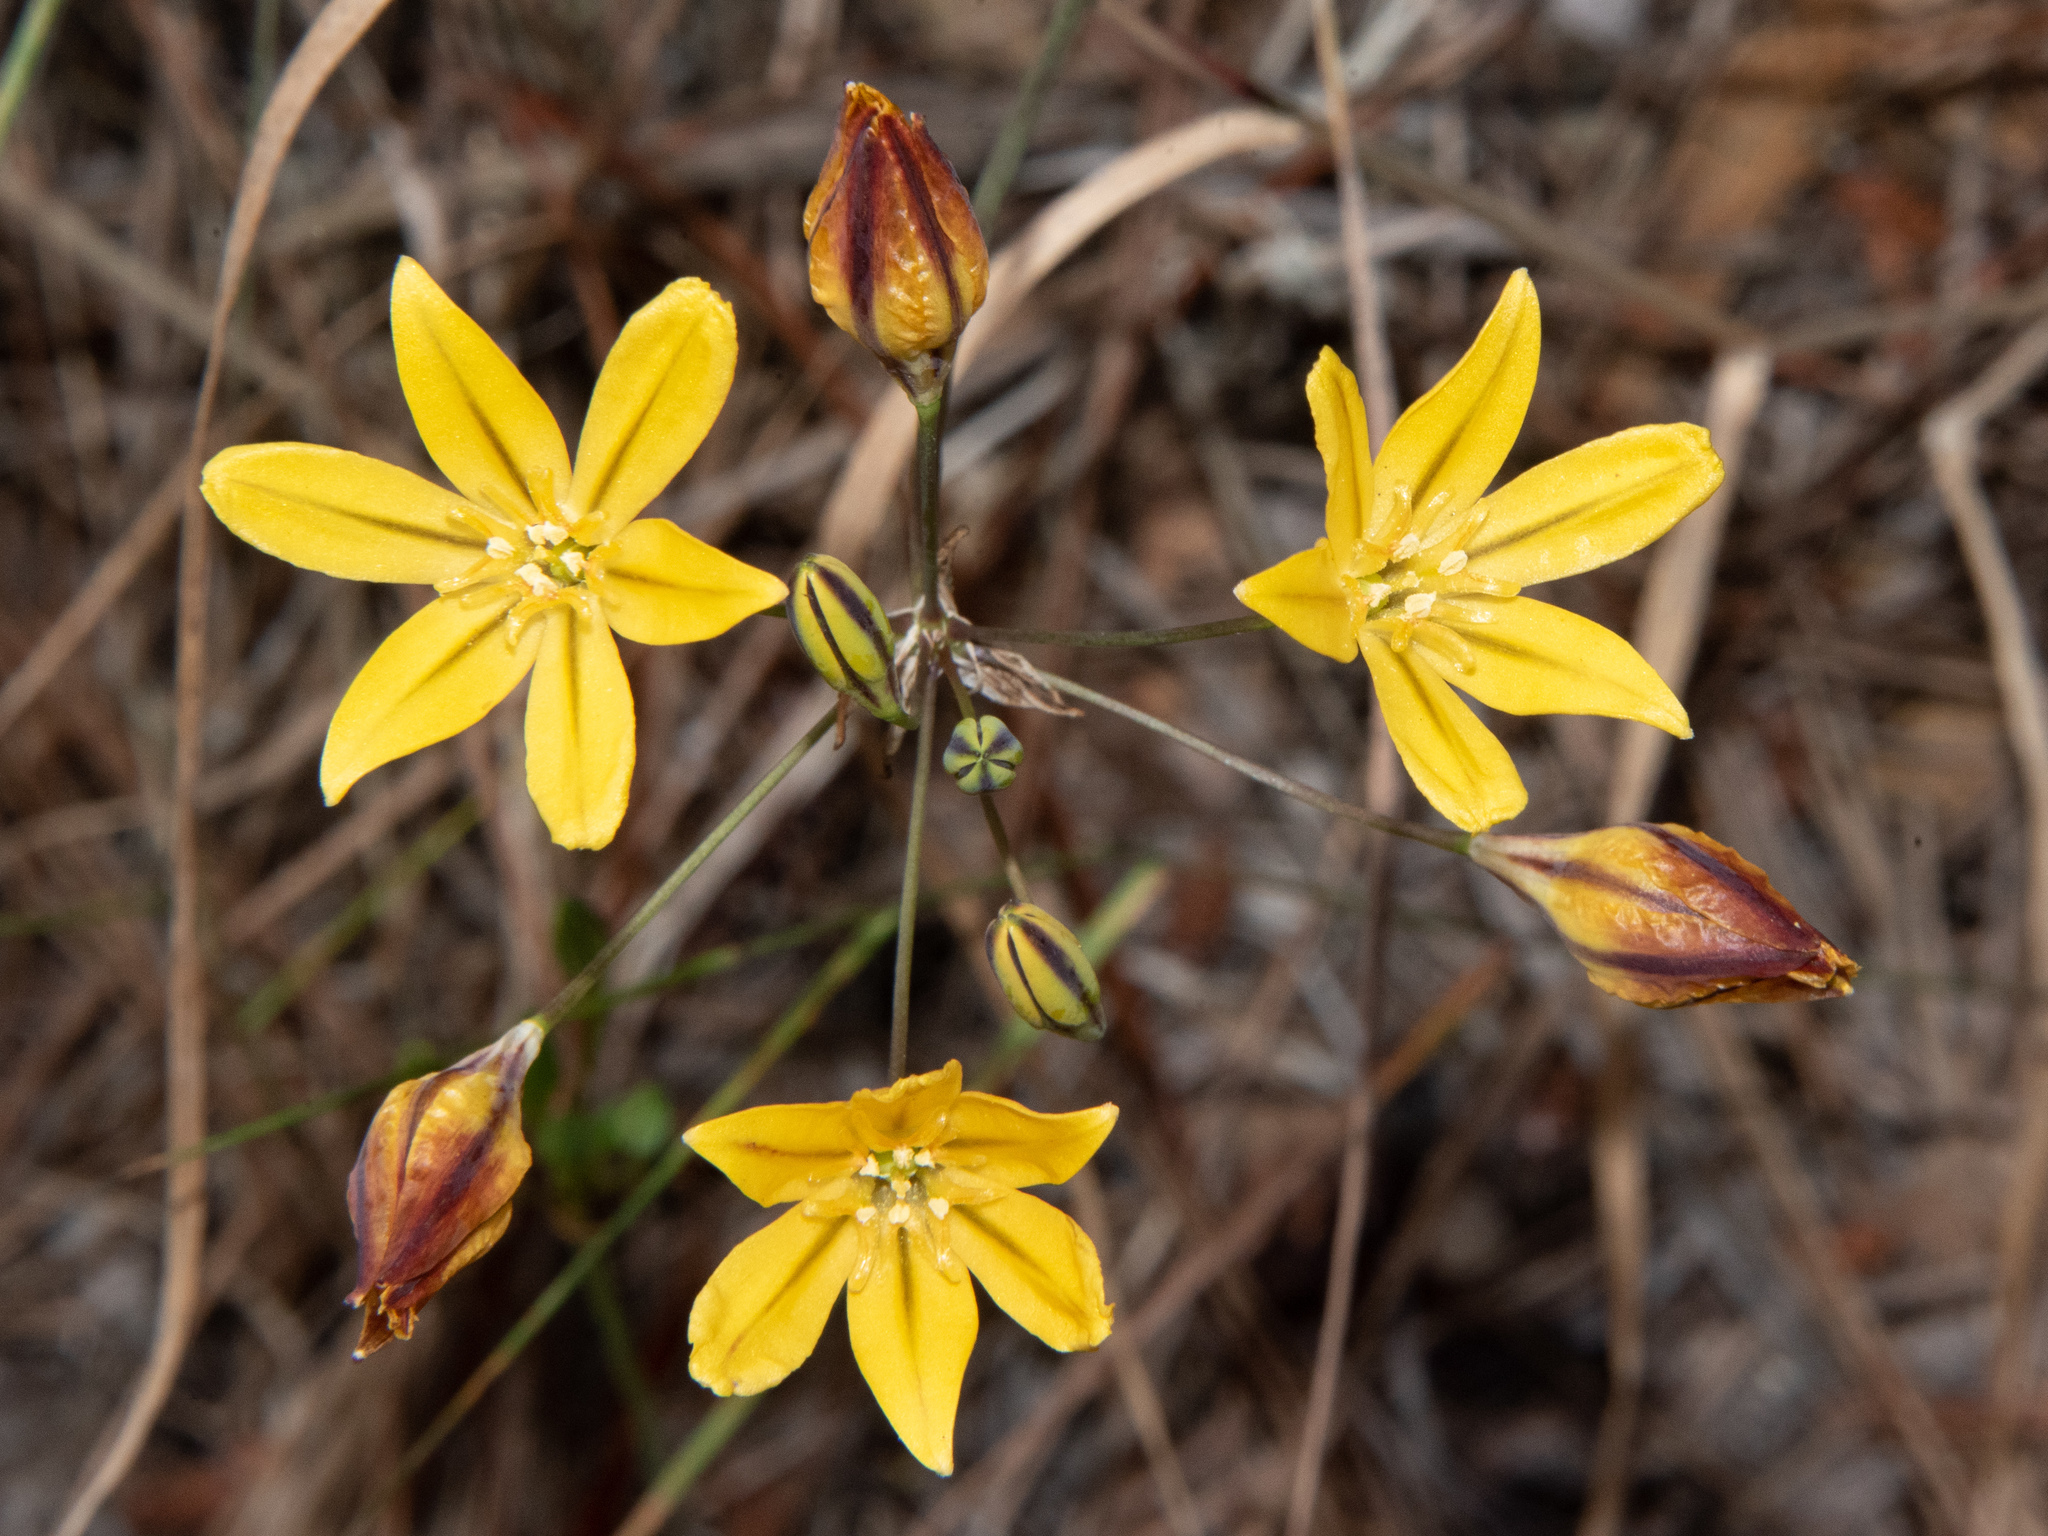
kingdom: Plantae
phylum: Tracheophyta
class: Liliopsida
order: Asparagales
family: Asparagaceae
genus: Triteleia
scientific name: Triteleia ixioides
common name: Yellow-brodiaea
